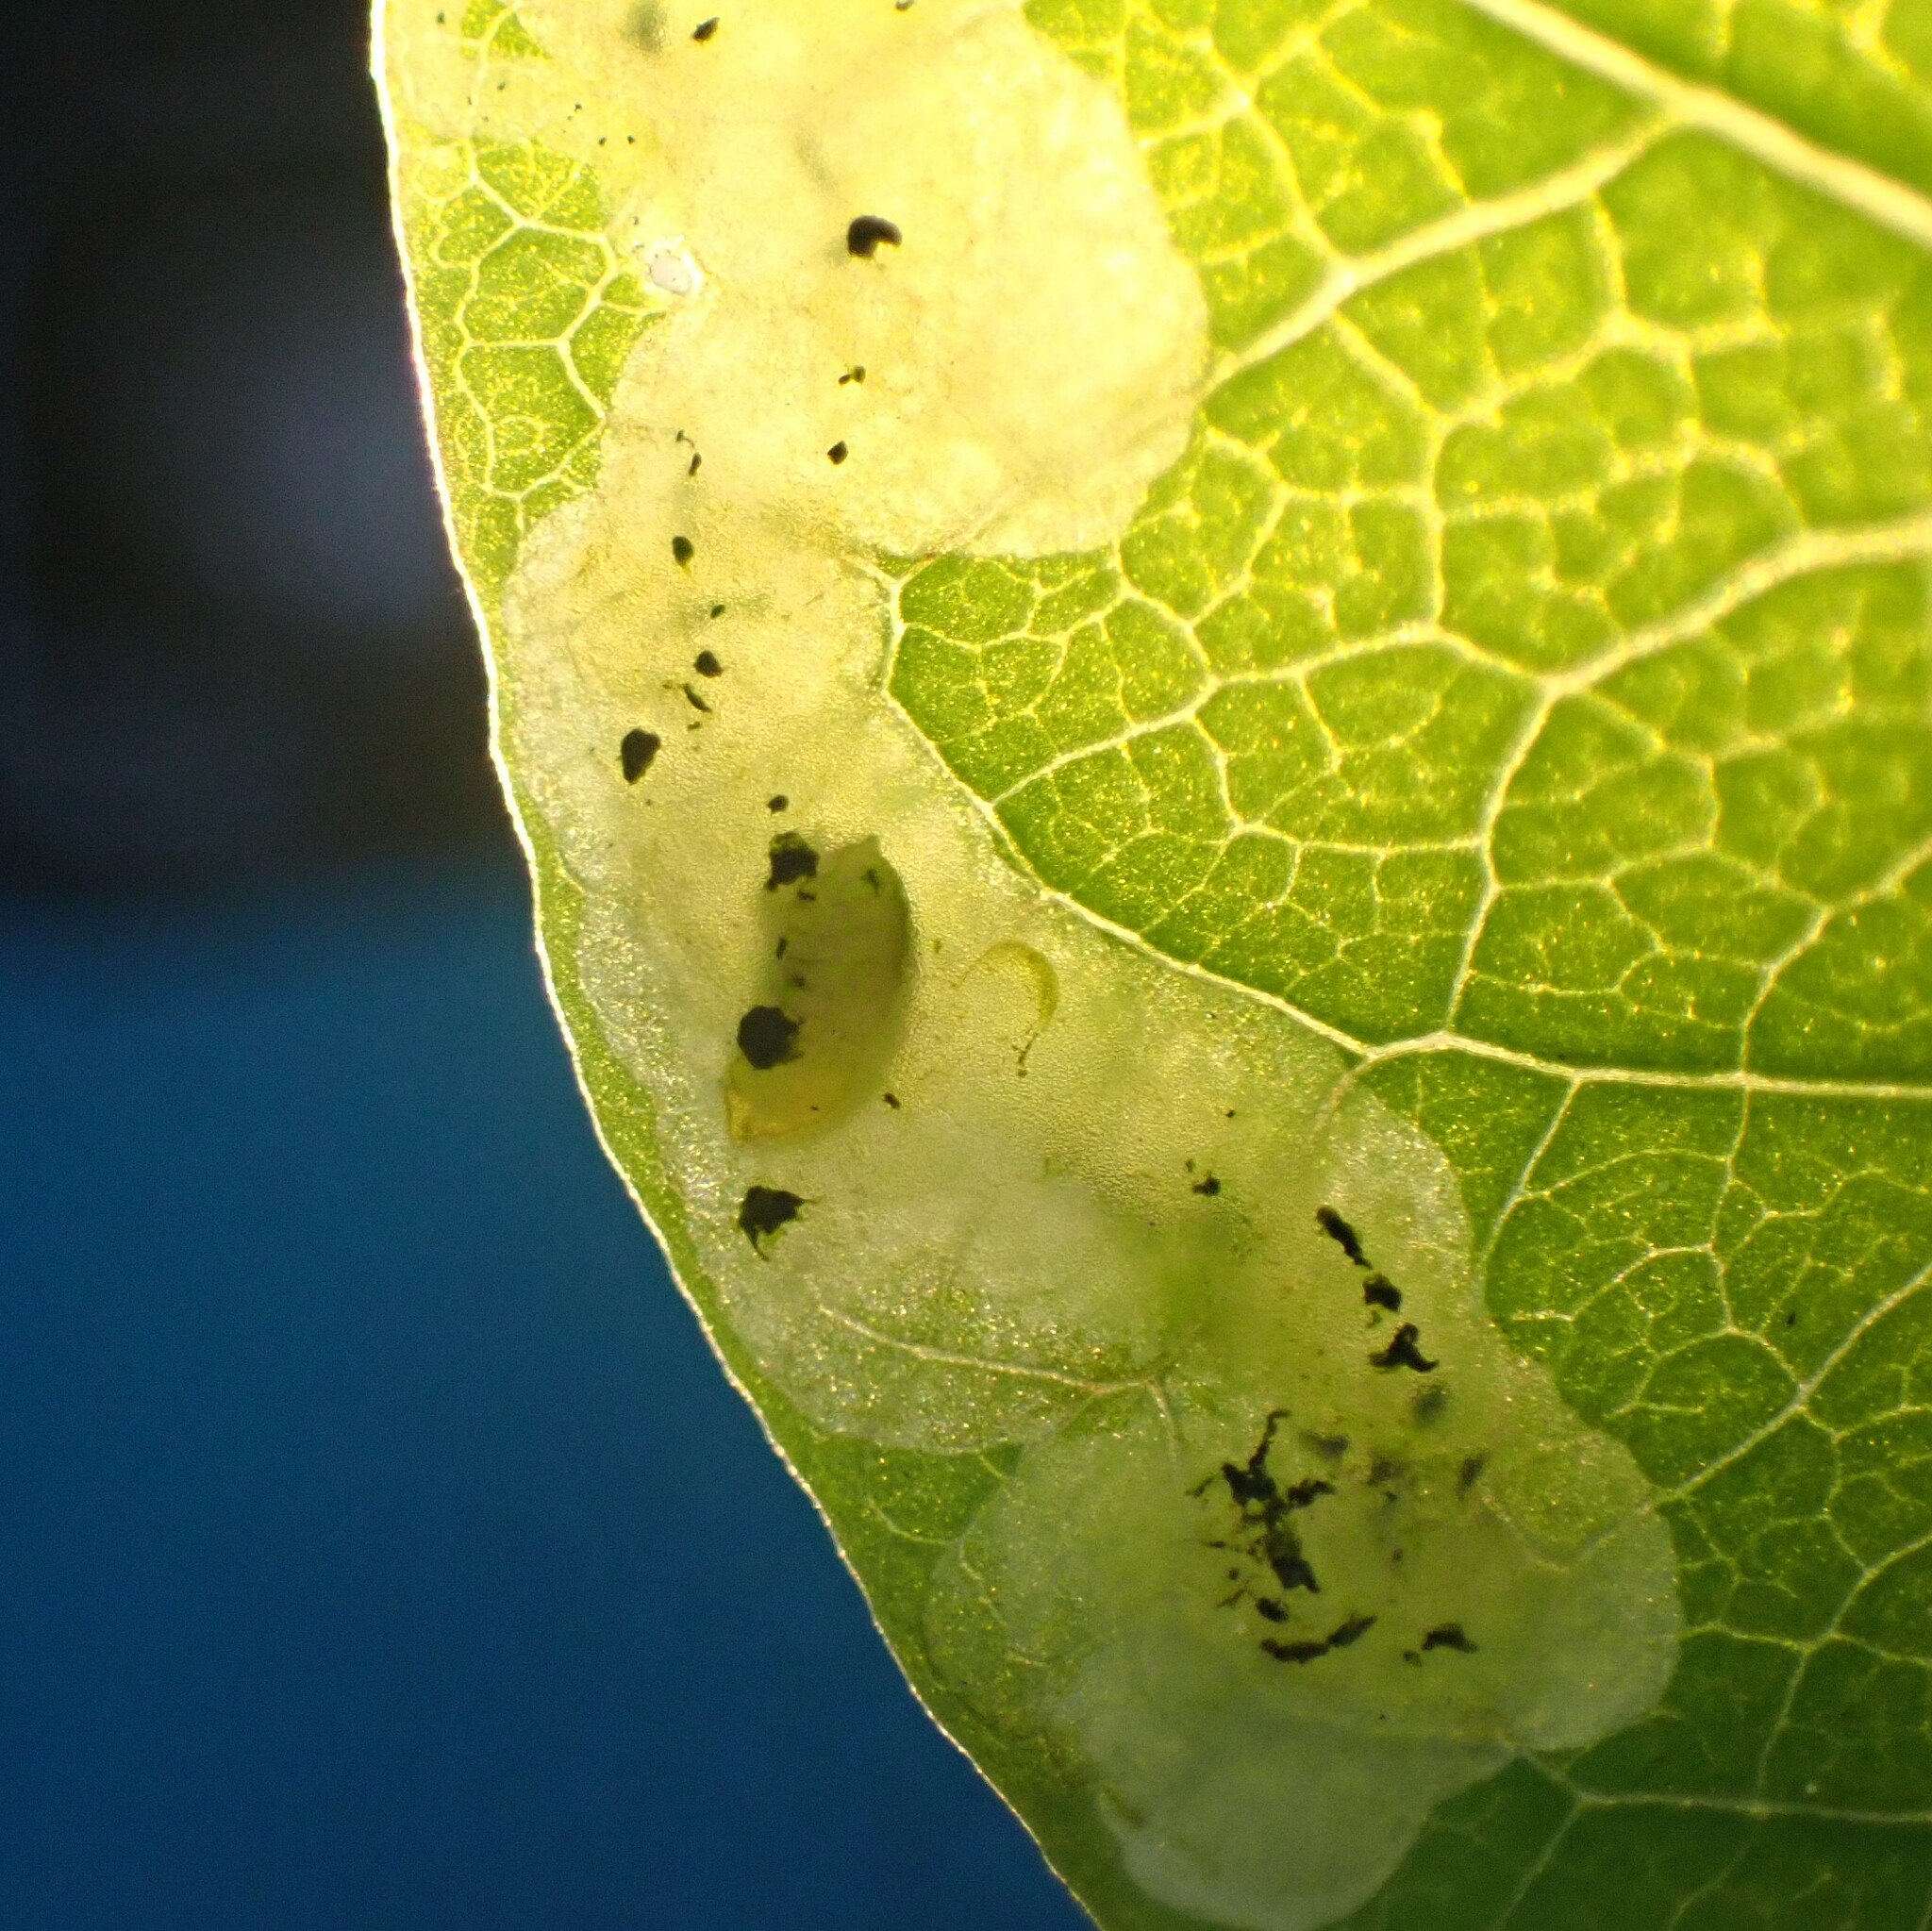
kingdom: Animalia
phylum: Arthropoda
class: Insecta
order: Diptera
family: Agromyzidae
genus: Aulagromyza
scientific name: Aulagromyza cornigera
